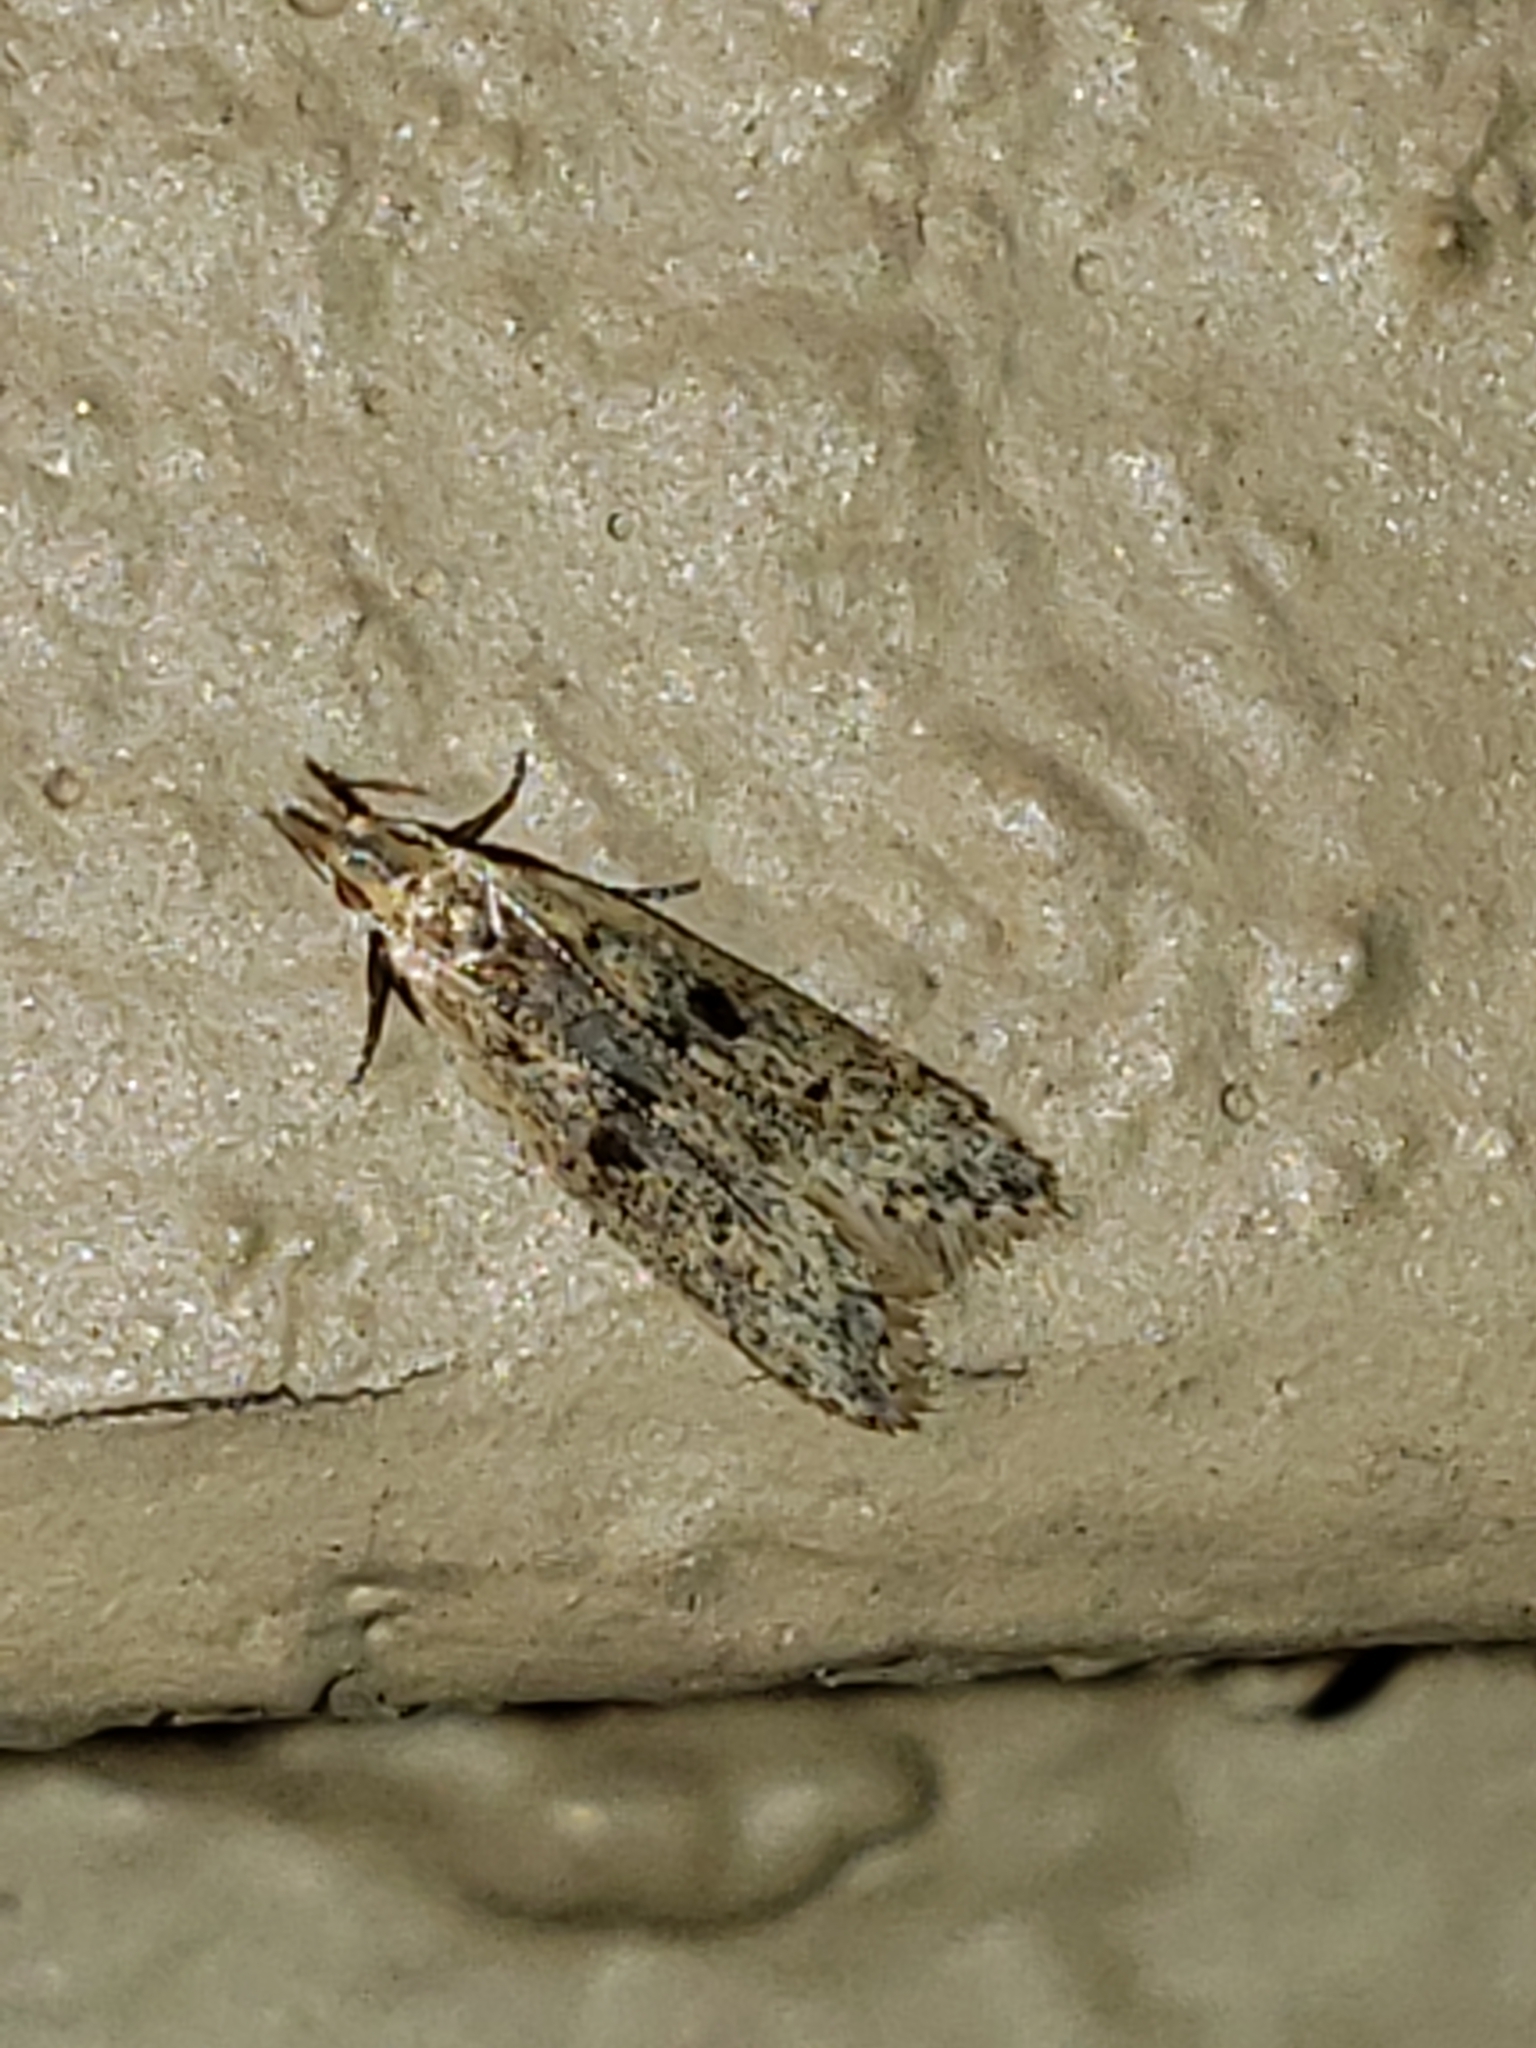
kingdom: Animalia
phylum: Arthropoda
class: Insecta
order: Lepidoptera
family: Gelechiidae
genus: Dichomeris
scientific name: Dichomeris punctipennella
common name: Many-spotted dichomeris moth
